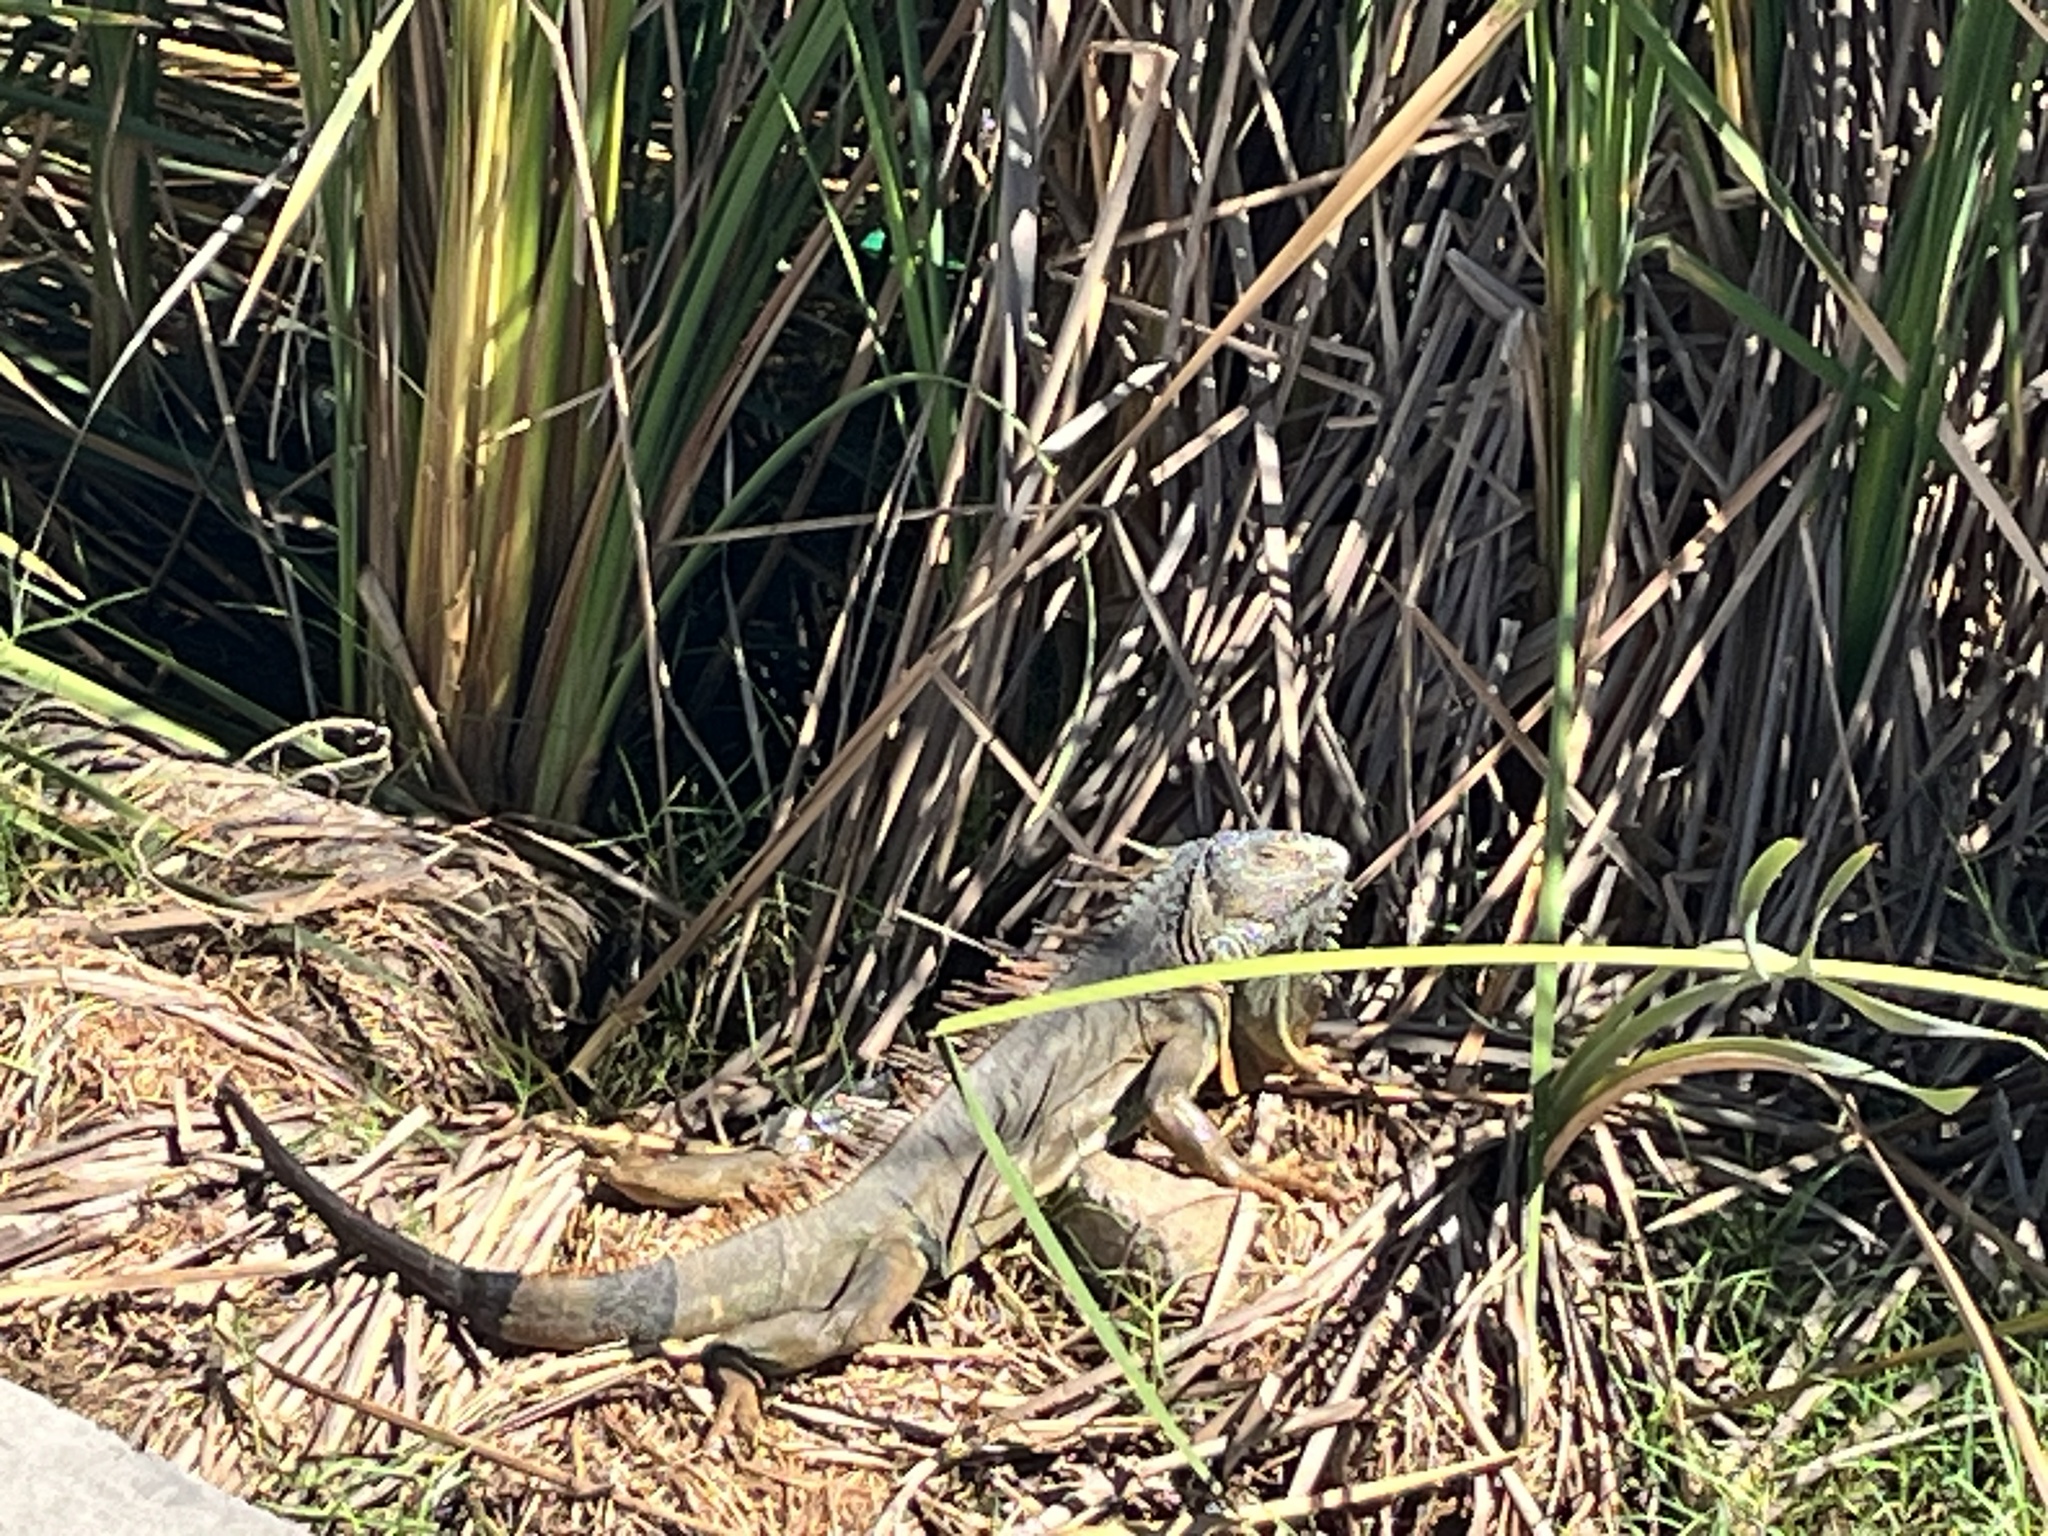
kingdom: Animalia
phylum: Chordata
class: Squamata
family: Iguanidae
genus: Iguana
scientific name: Iguana iguana
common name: Green iguana
